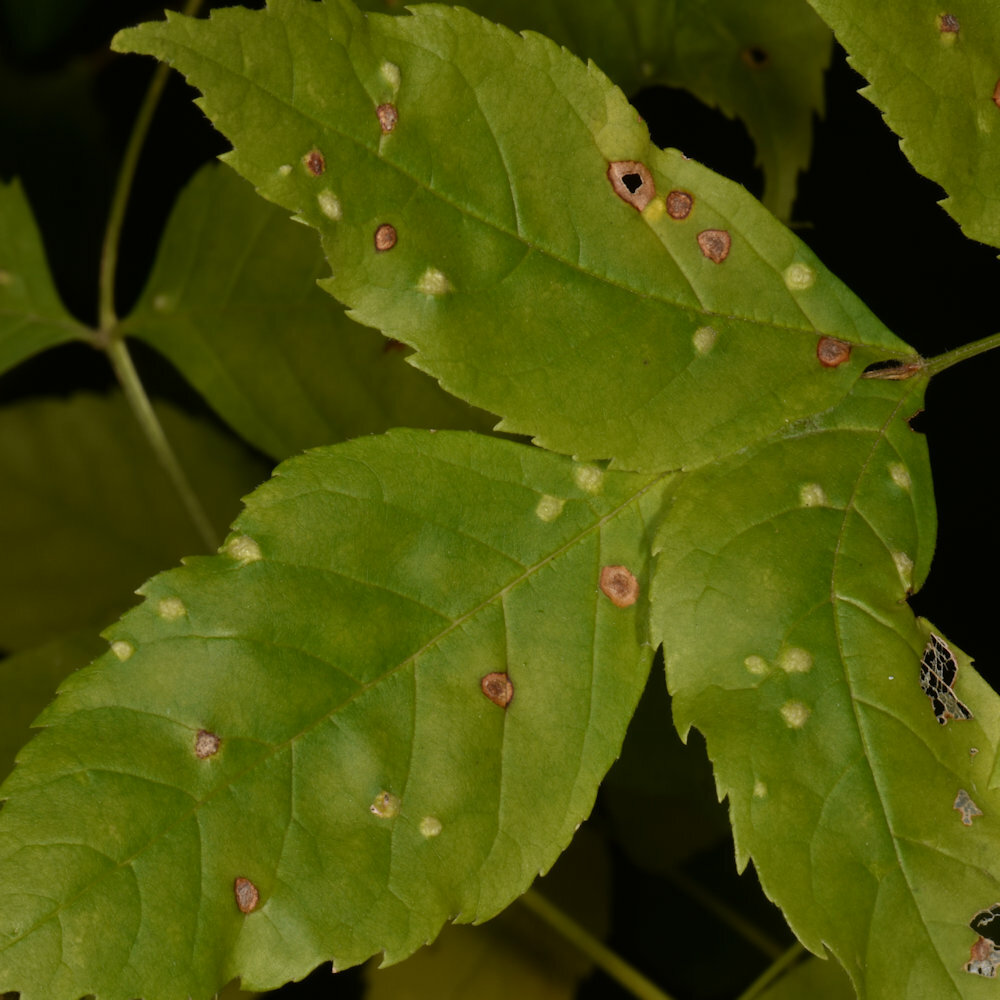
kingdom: Animalia
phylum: Arthropoda
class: Arachnida
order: Trombidiformes
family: Eriophyidae
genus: Aceria
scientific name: Aceria fraxinicola
